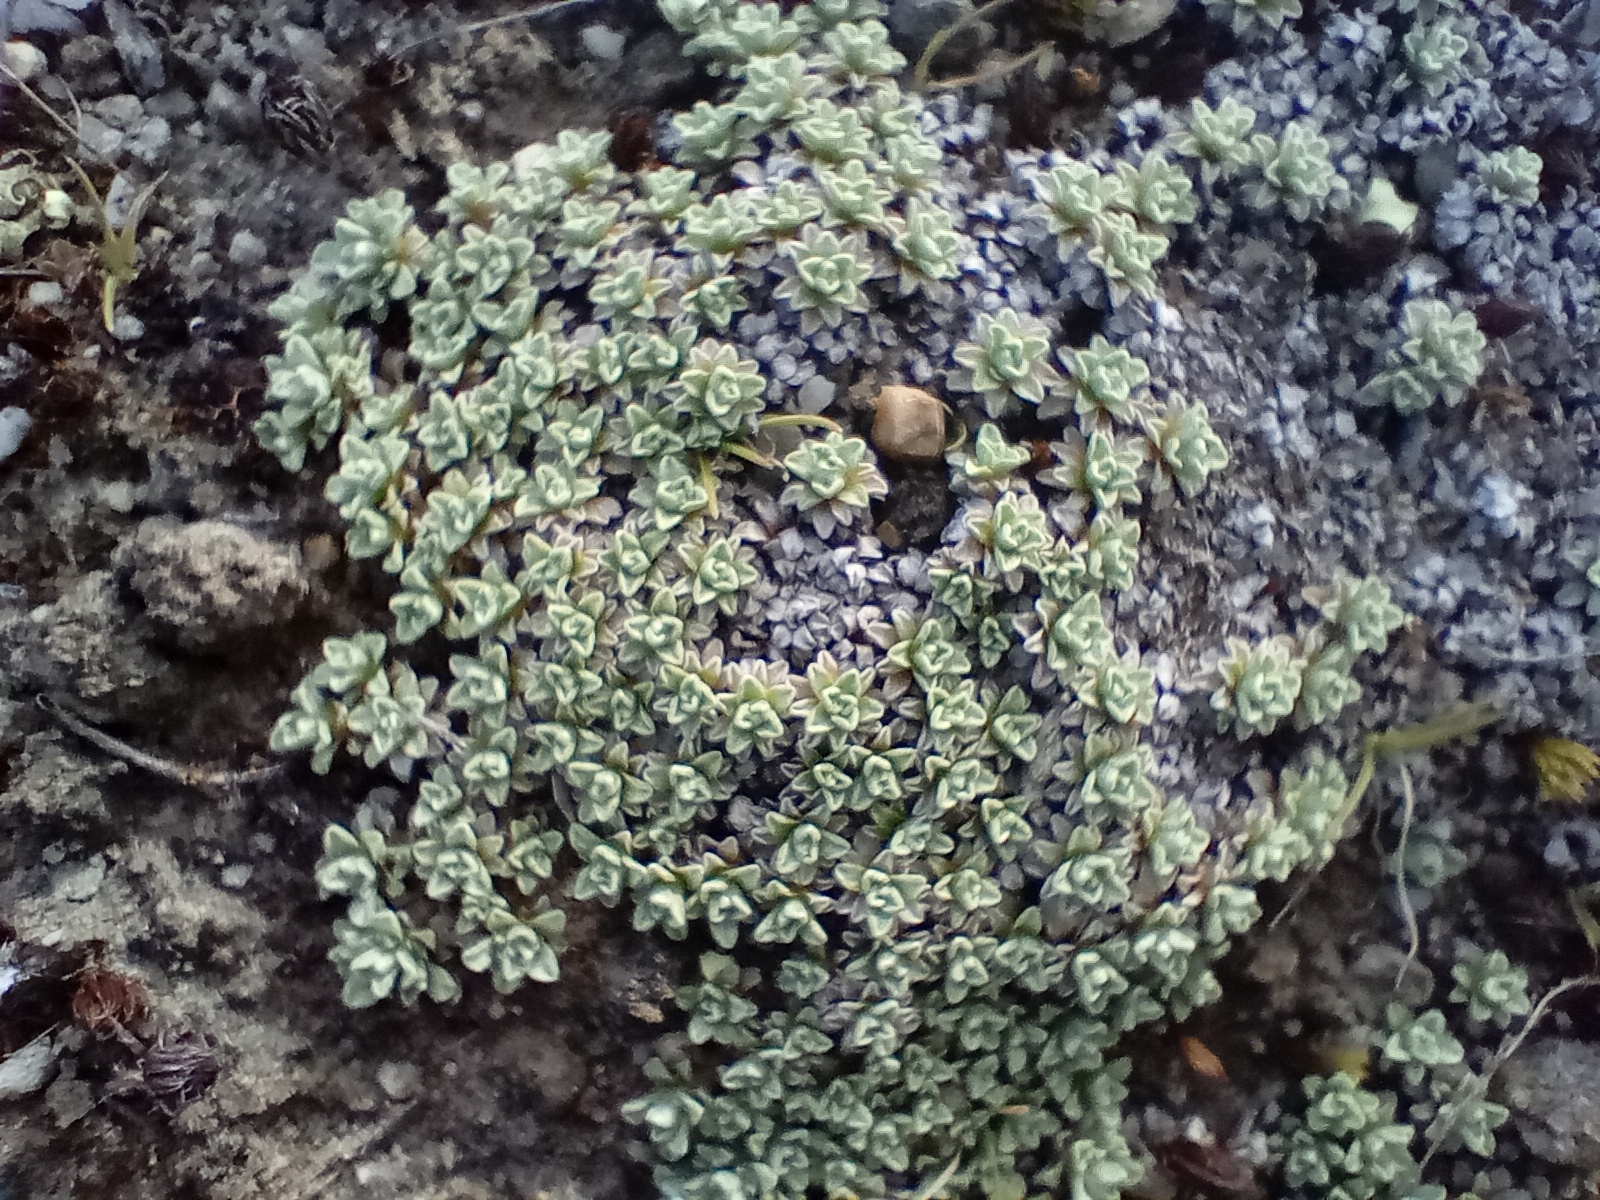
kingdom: Plantae
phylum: Tracheophyta
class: Magnoliopsida
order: Asterales
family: Asteraceae
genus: Raoulia
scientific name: Raoulia parkii
